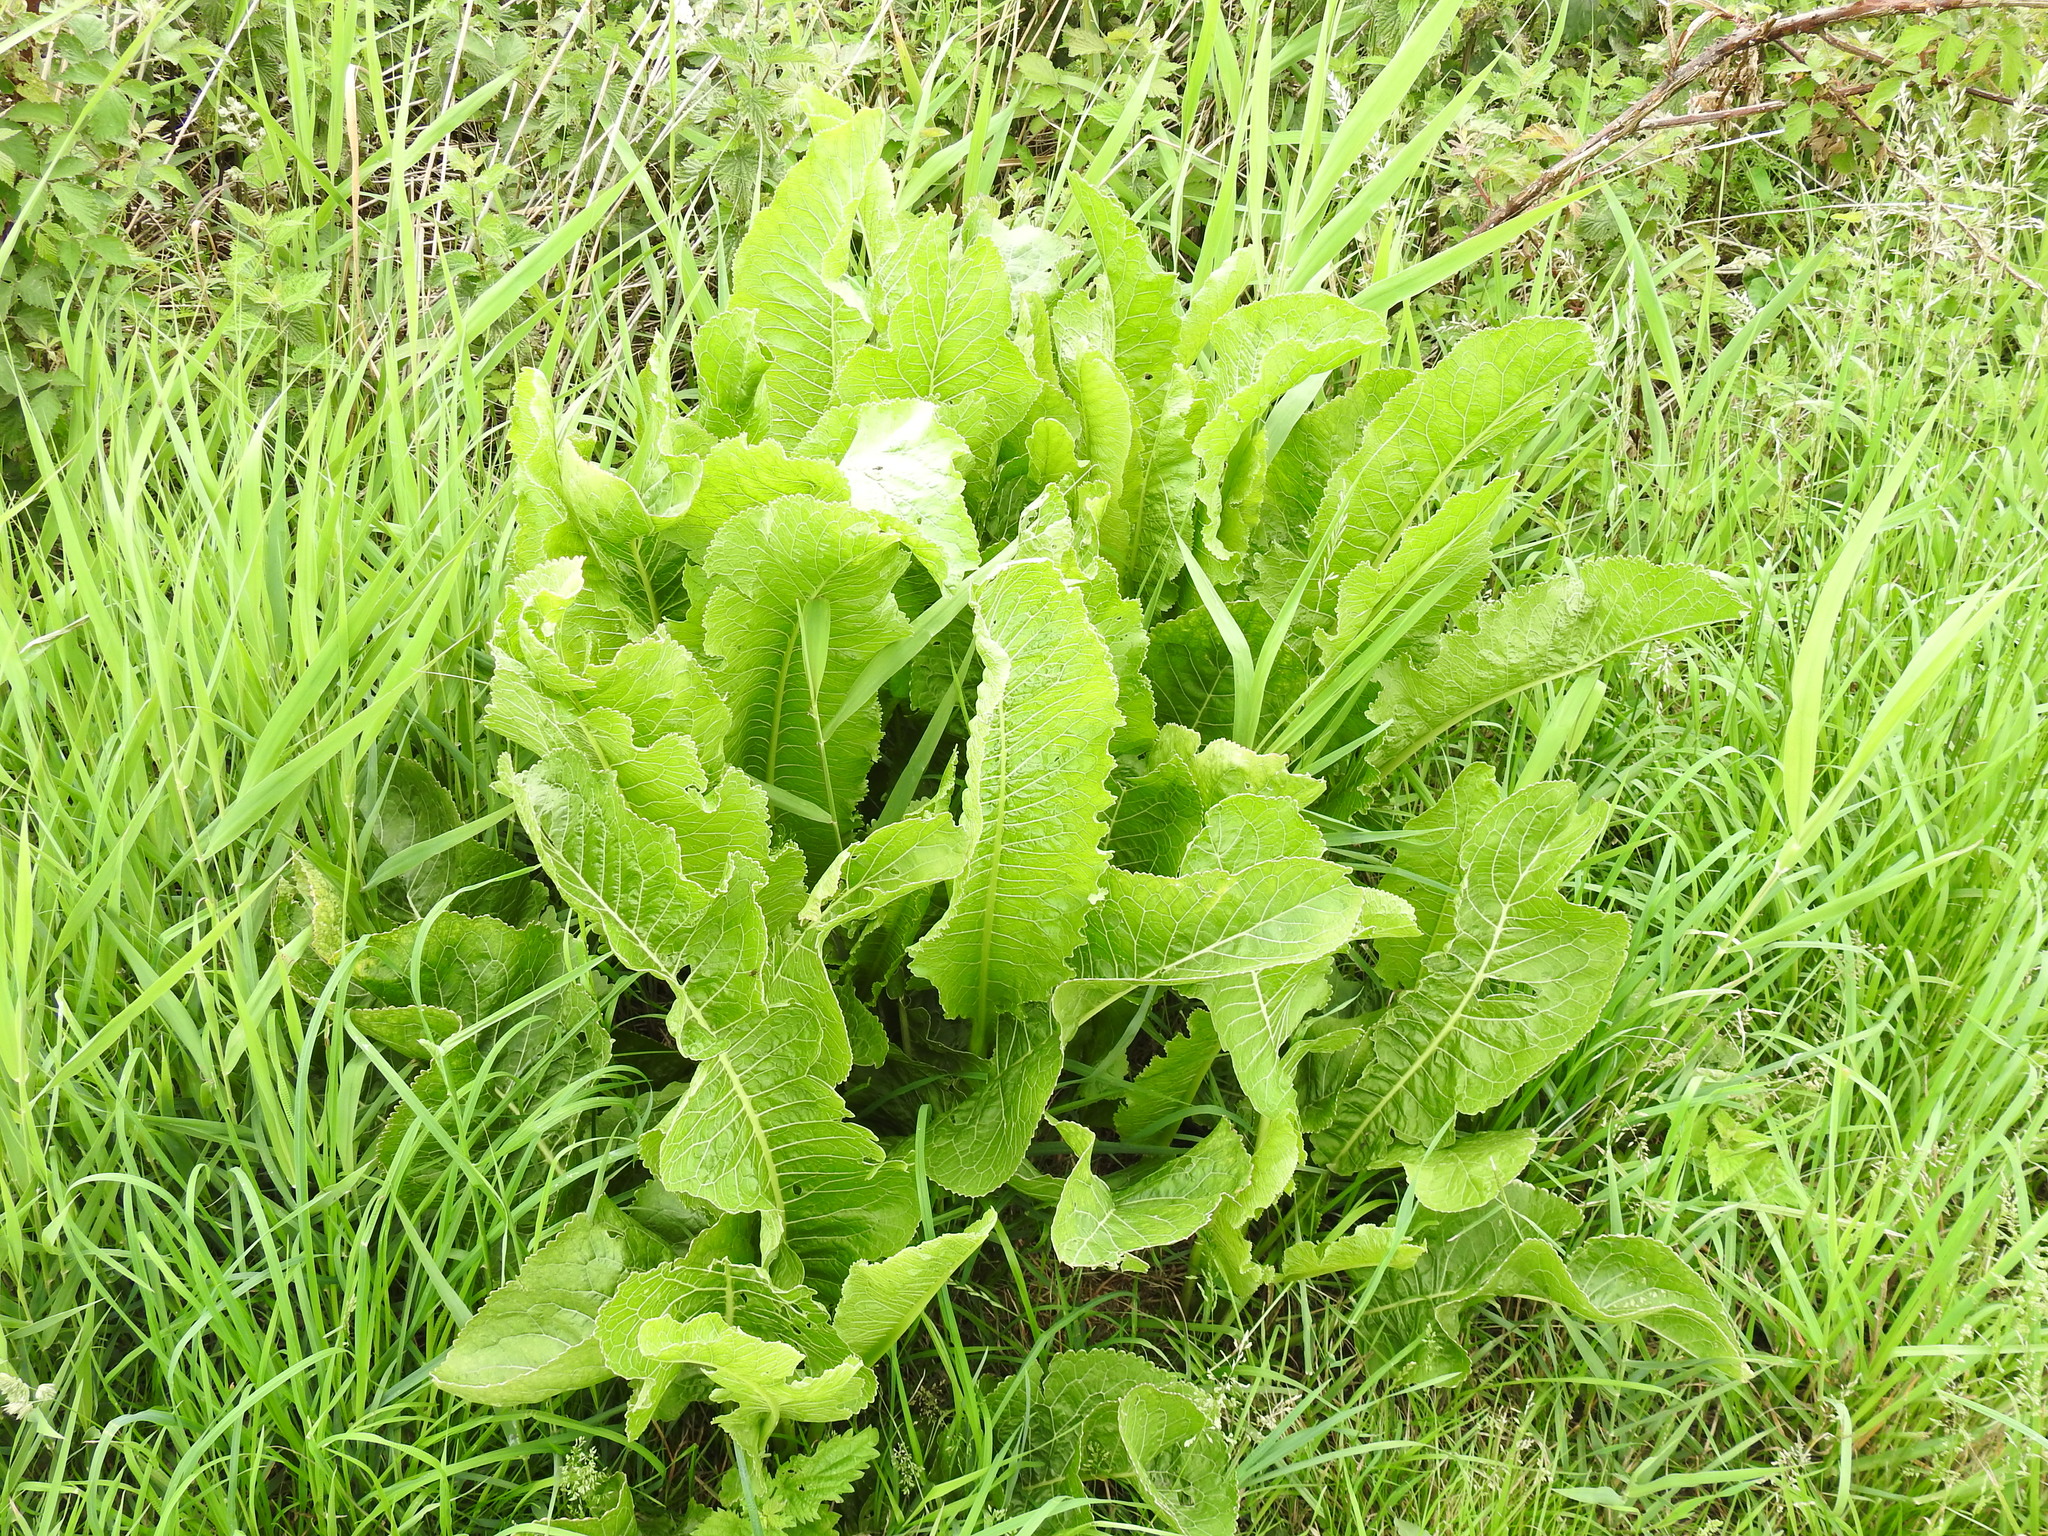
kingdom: Plantae
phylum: Tracheophyta
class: Magnoliopsida
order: Brassicales
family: Brassicaceae
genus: Armoracia
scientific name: Armoracia rusticana
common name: Horseradish
